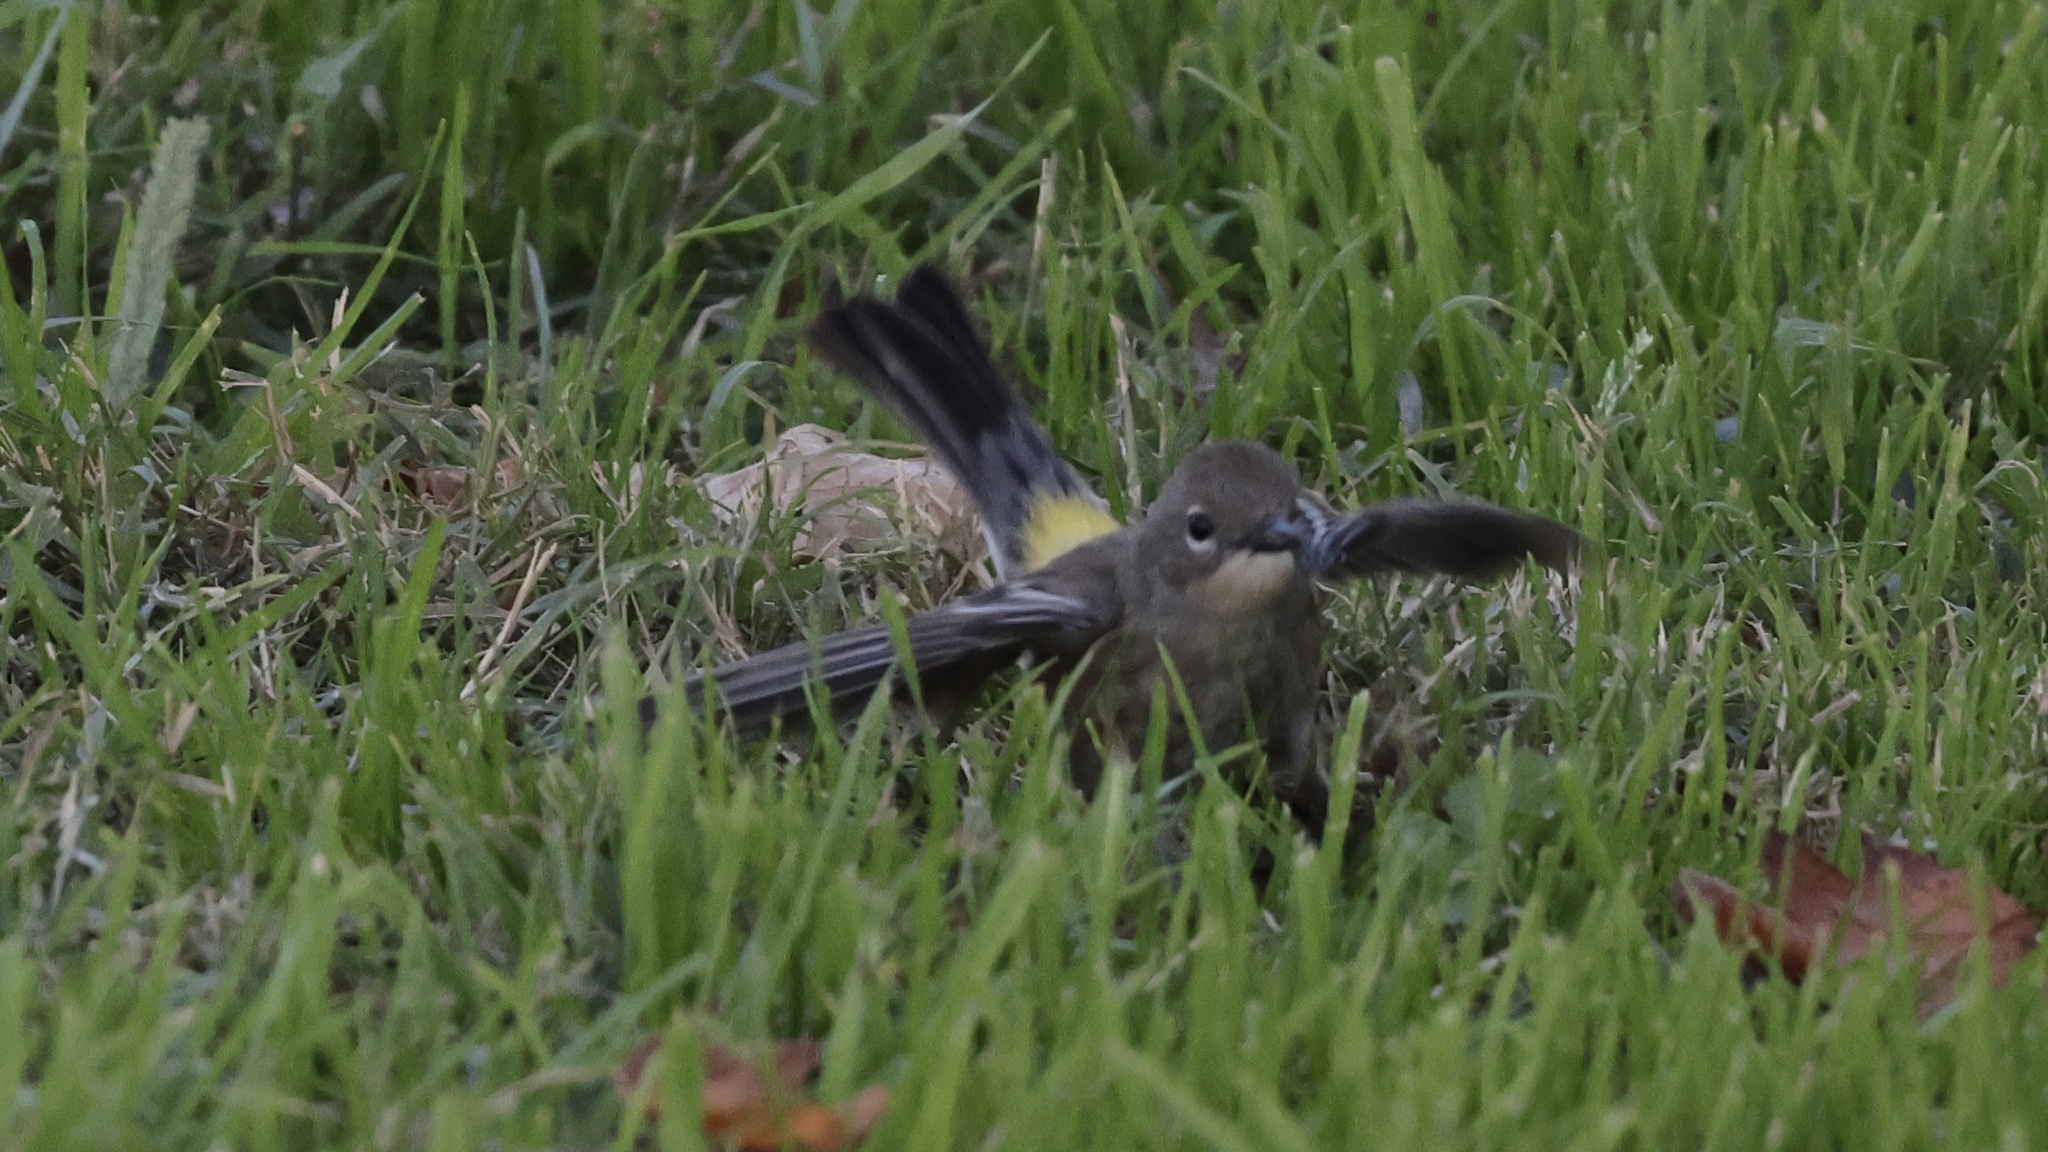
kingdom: Animalia
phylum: Chordata
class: Aves
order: Passeriformes
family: Parulidae
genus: Setophaga
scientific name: Setophaga coronata
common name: Myrtle warbler
